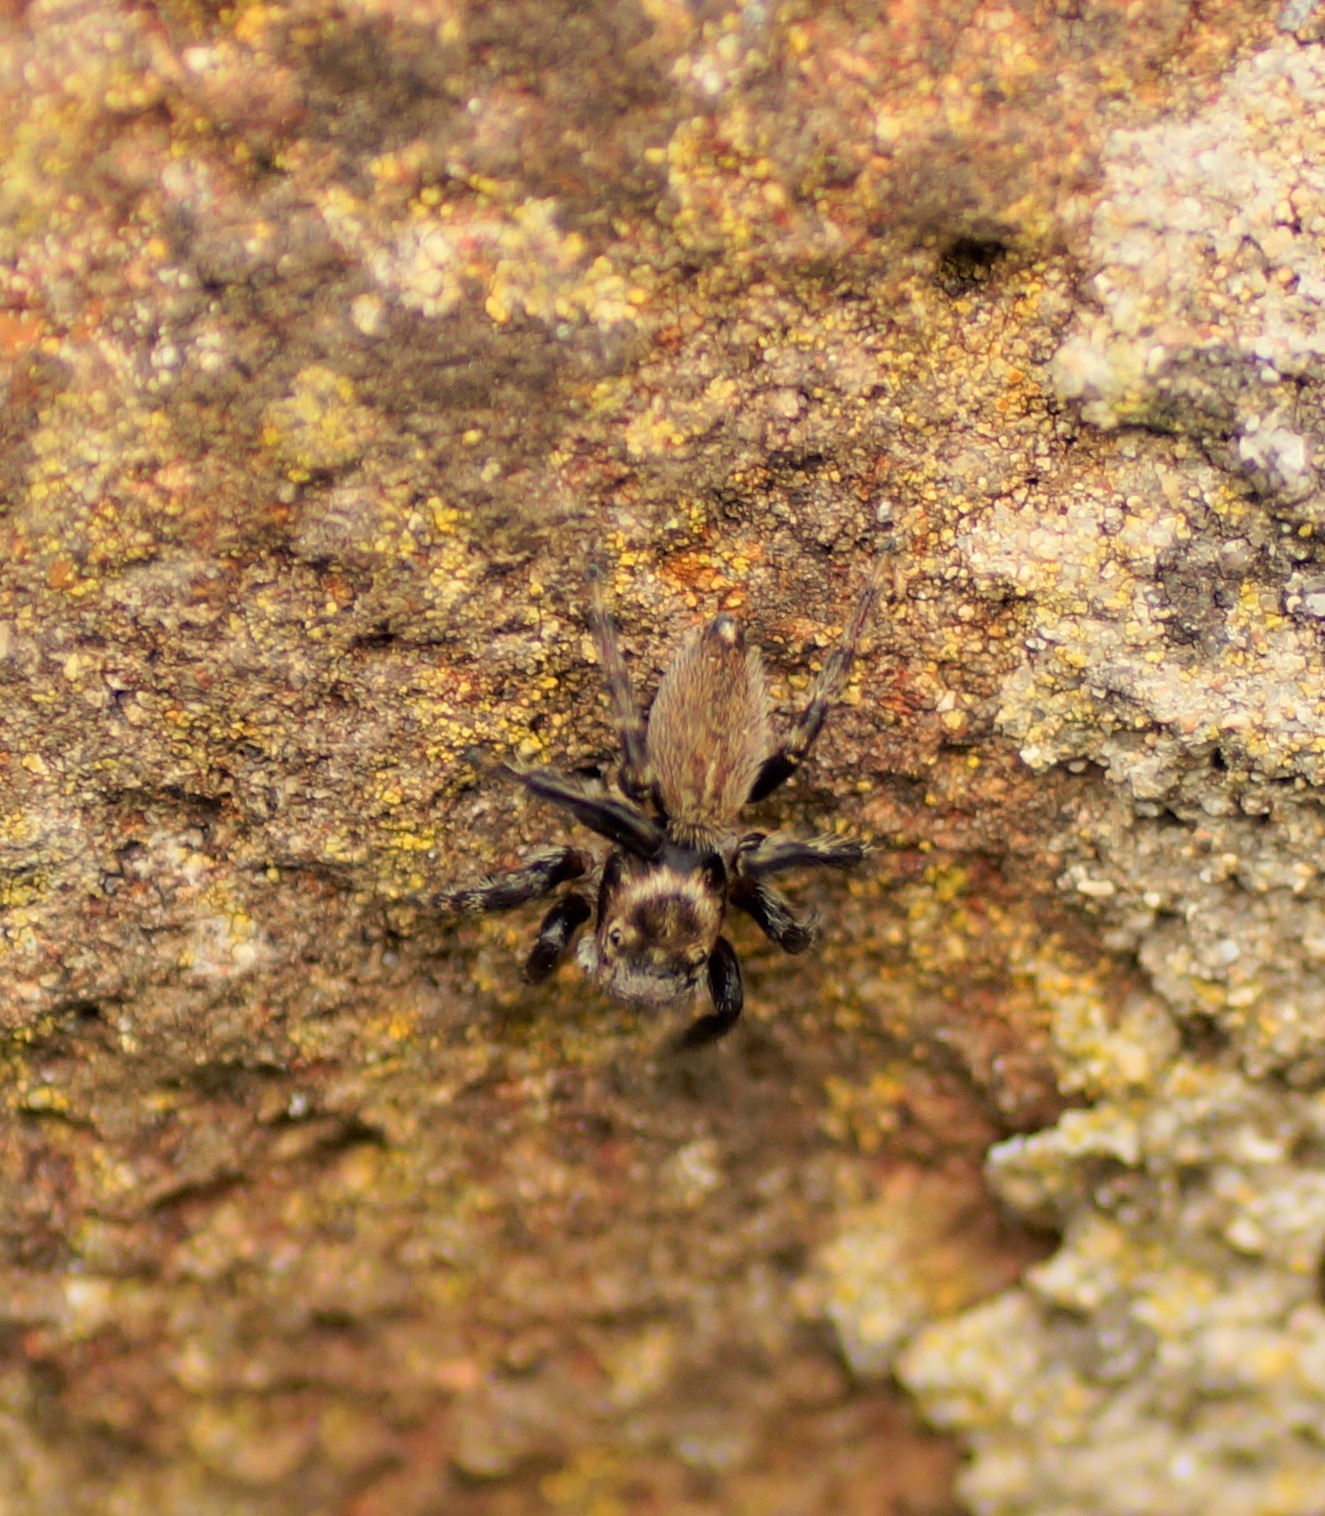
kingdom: Animalia
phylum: Arthropoda
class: Arachnida
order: Araneae
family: Salticidae
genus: Maratus
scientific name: Maratus griseus
